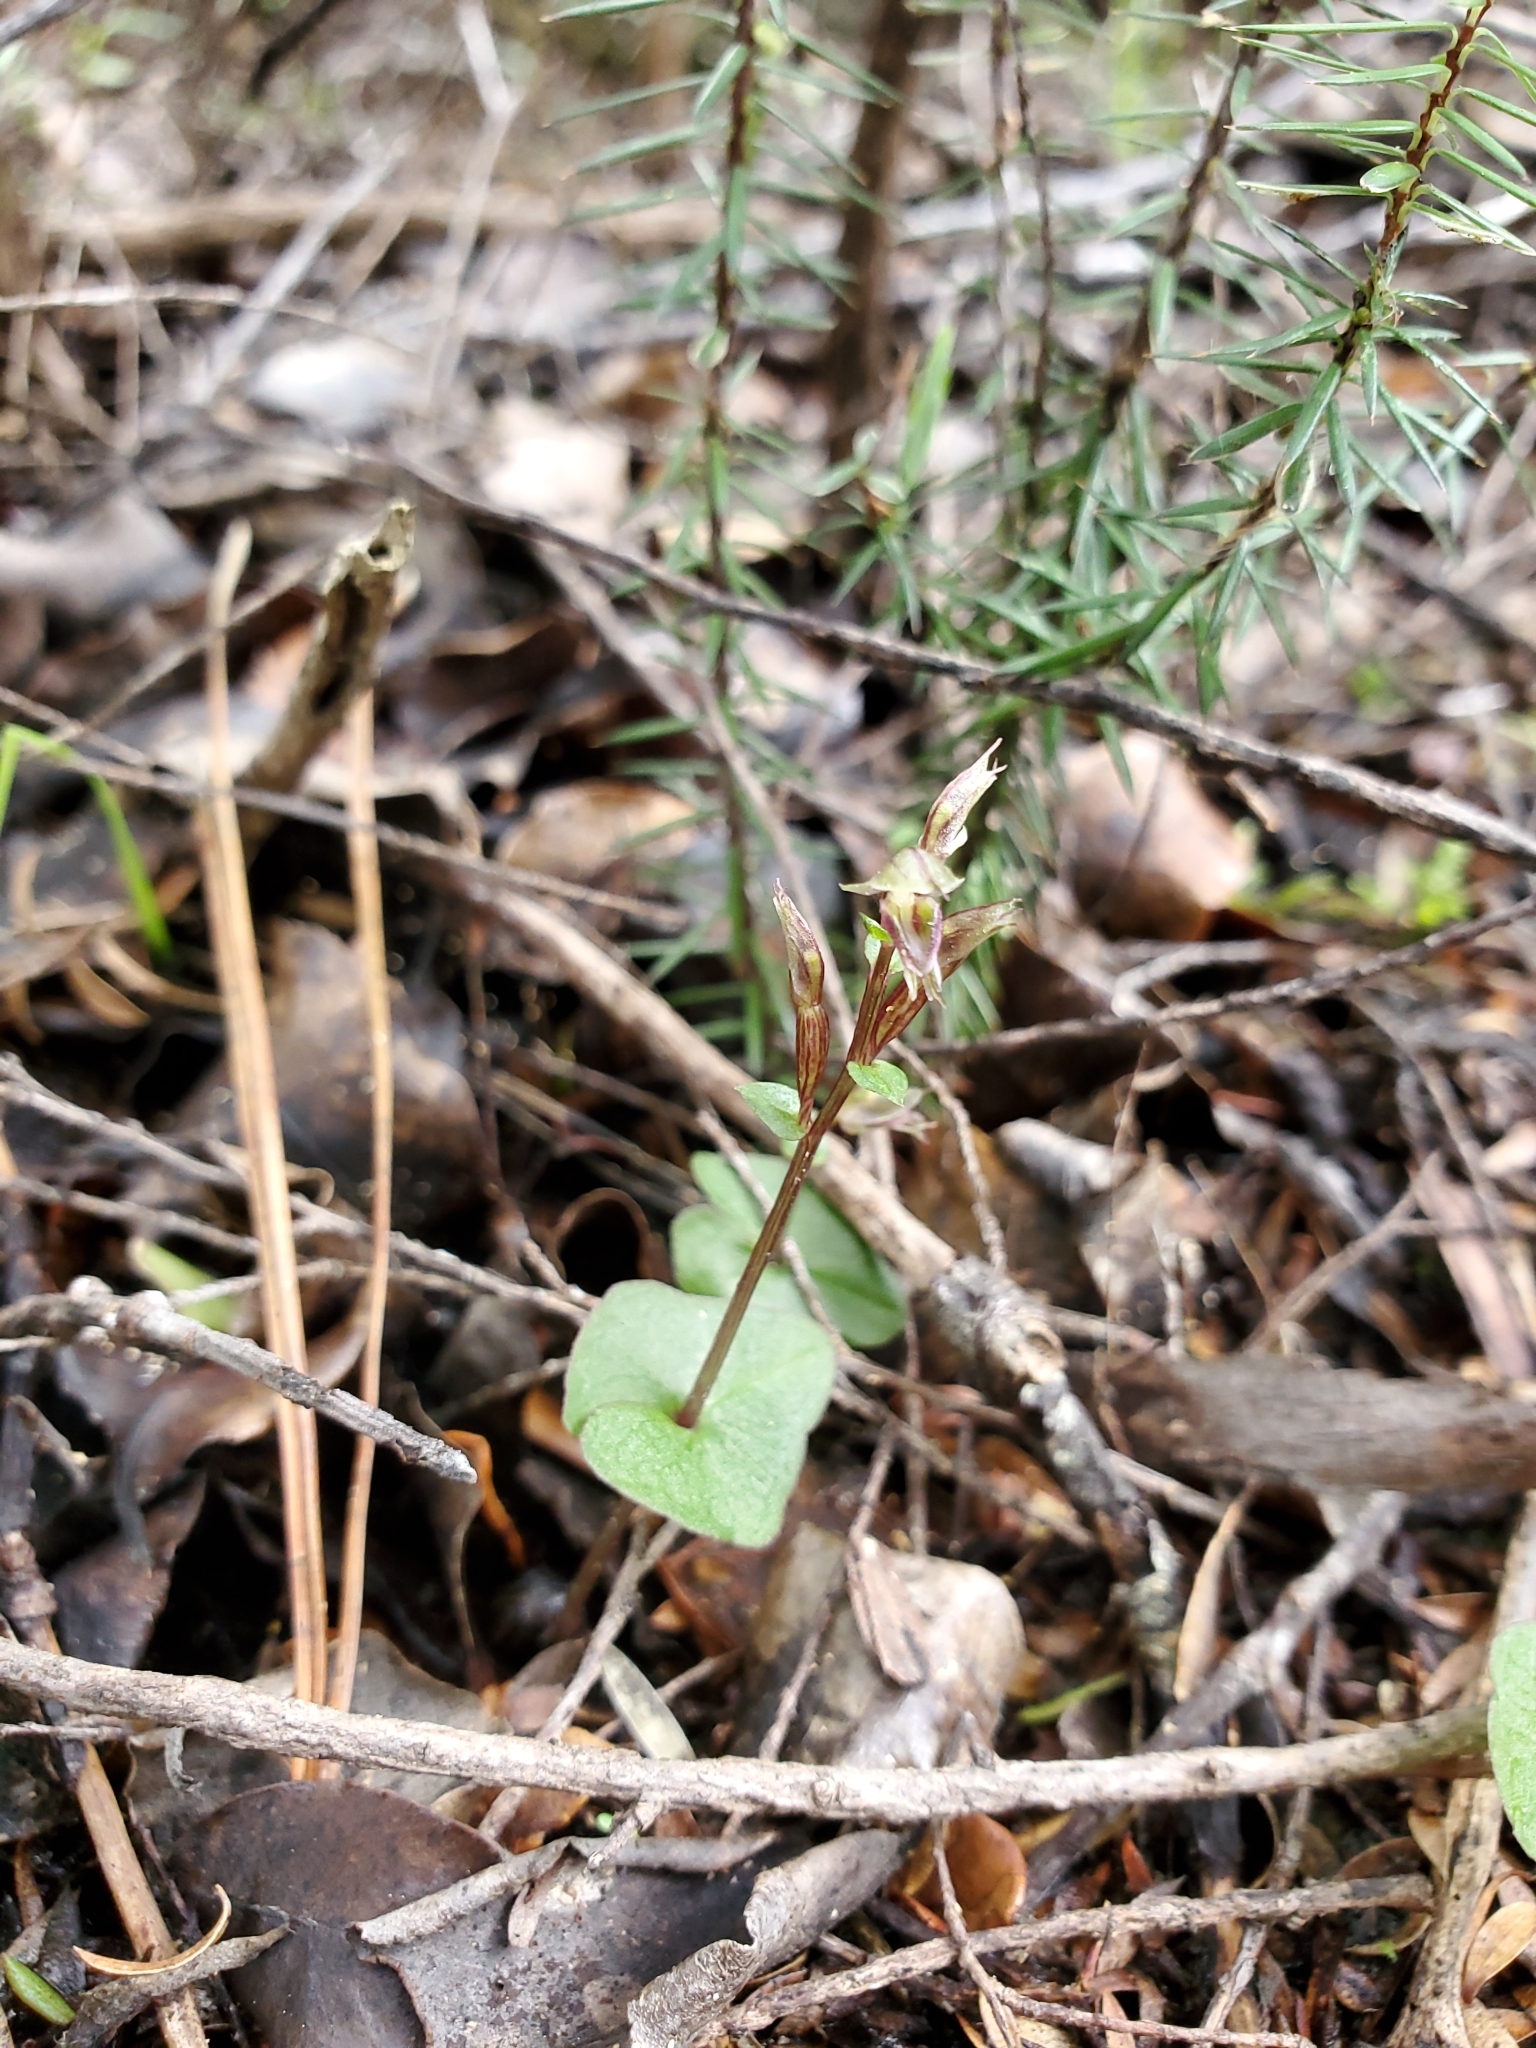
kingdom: Plantae
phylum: Tracheophyta
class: Liliopsida
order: Asparagales
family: Orchidaceae
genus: Acianthus
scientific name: Acianthus sinclairii
